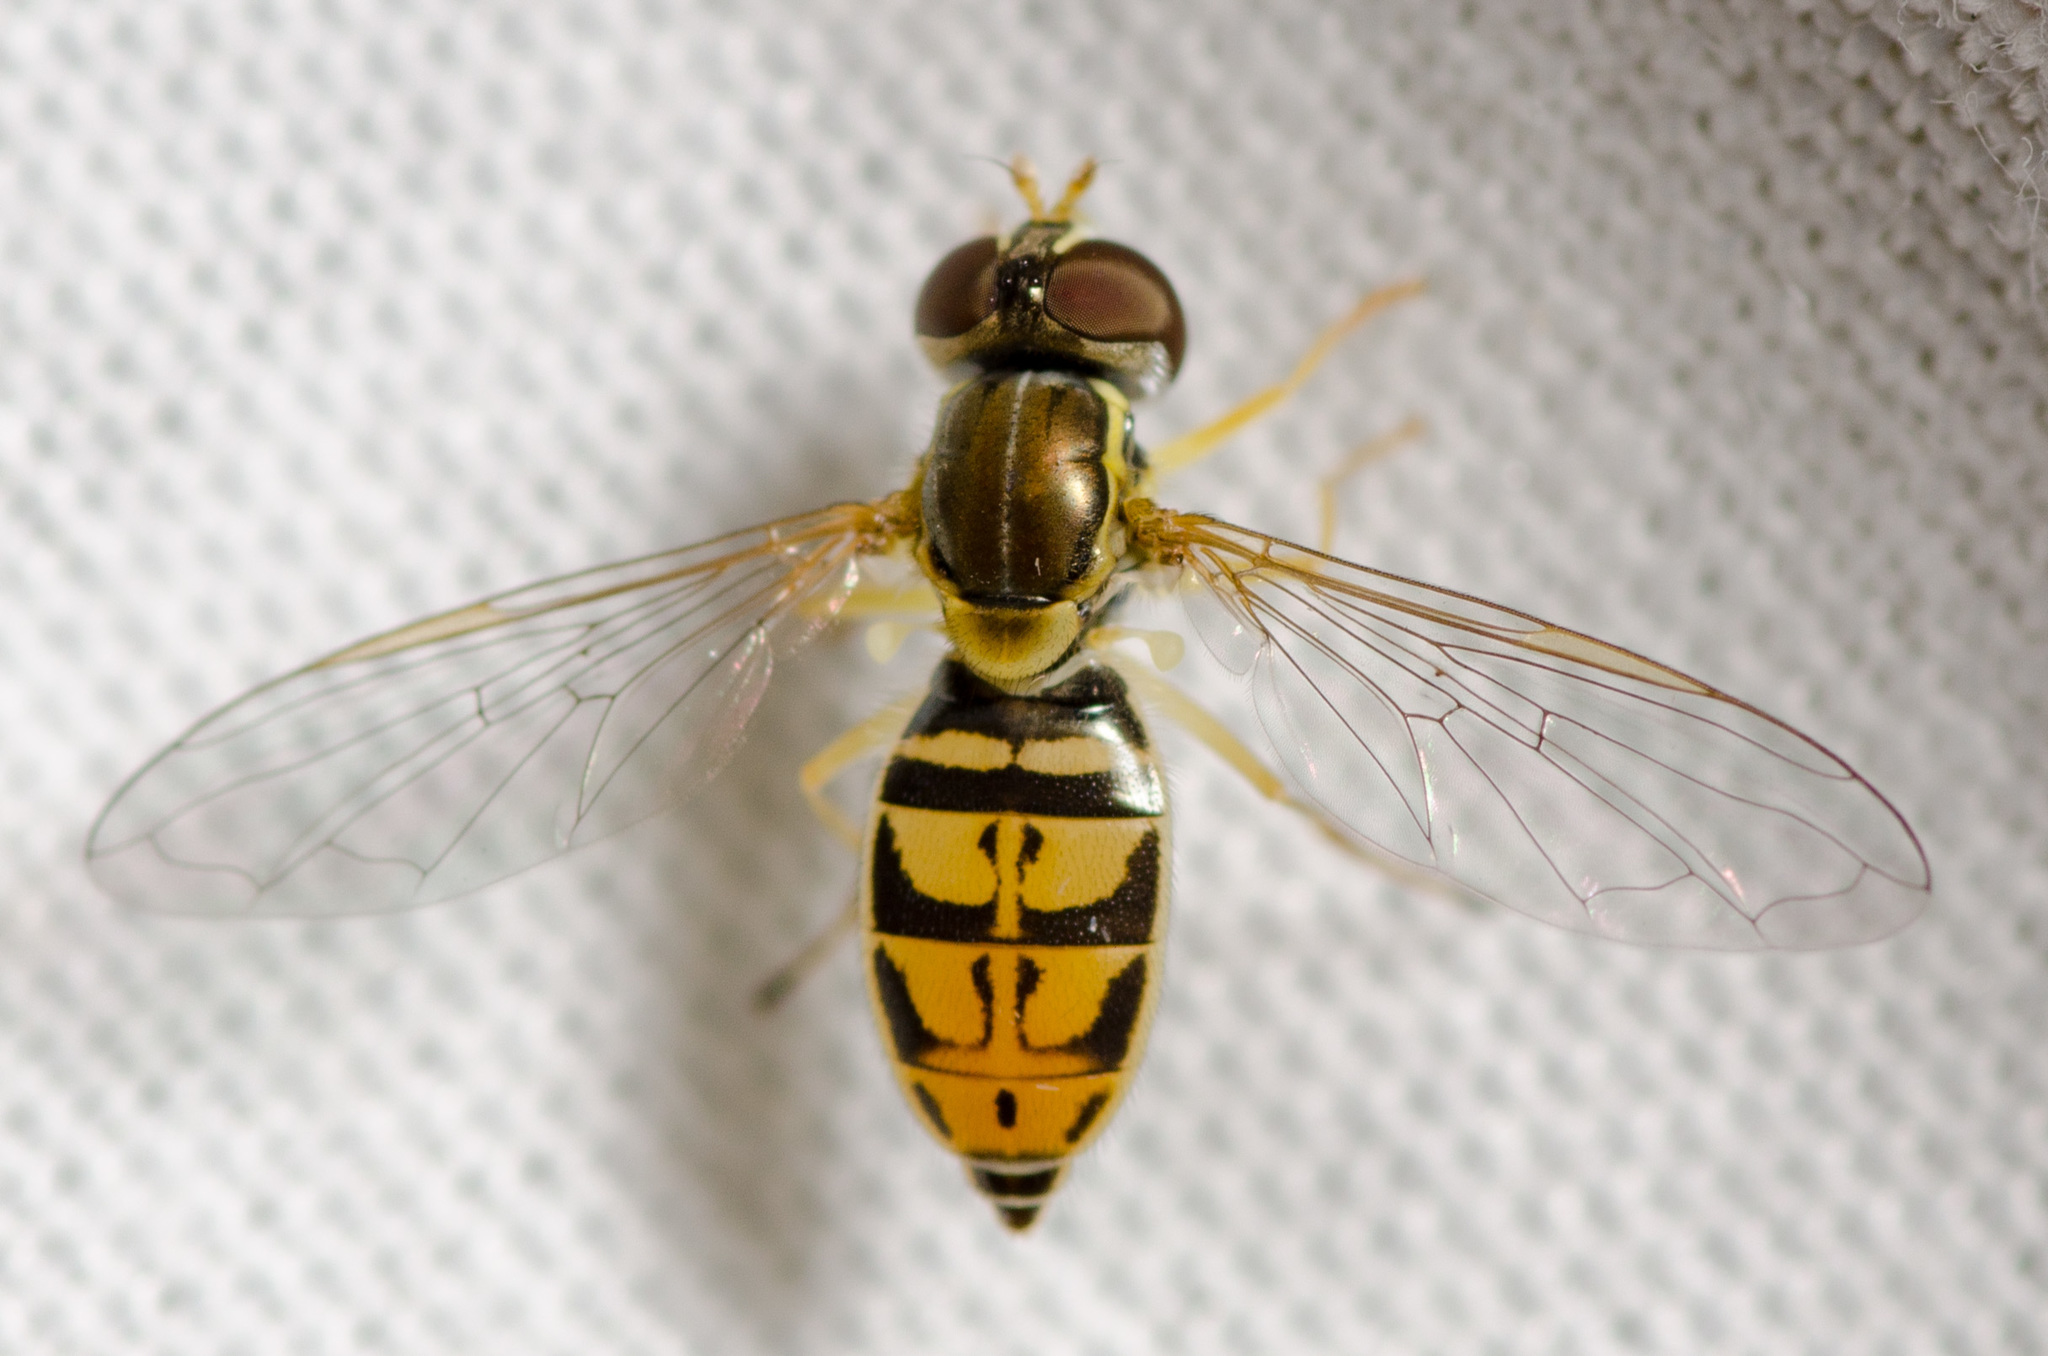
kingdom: Animalia
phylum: Arthropoda
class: Insecta
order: Diptera
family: Syrphidae
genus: Toxomerus
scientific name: Toxomerus marginatus
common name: Syrphid fly
